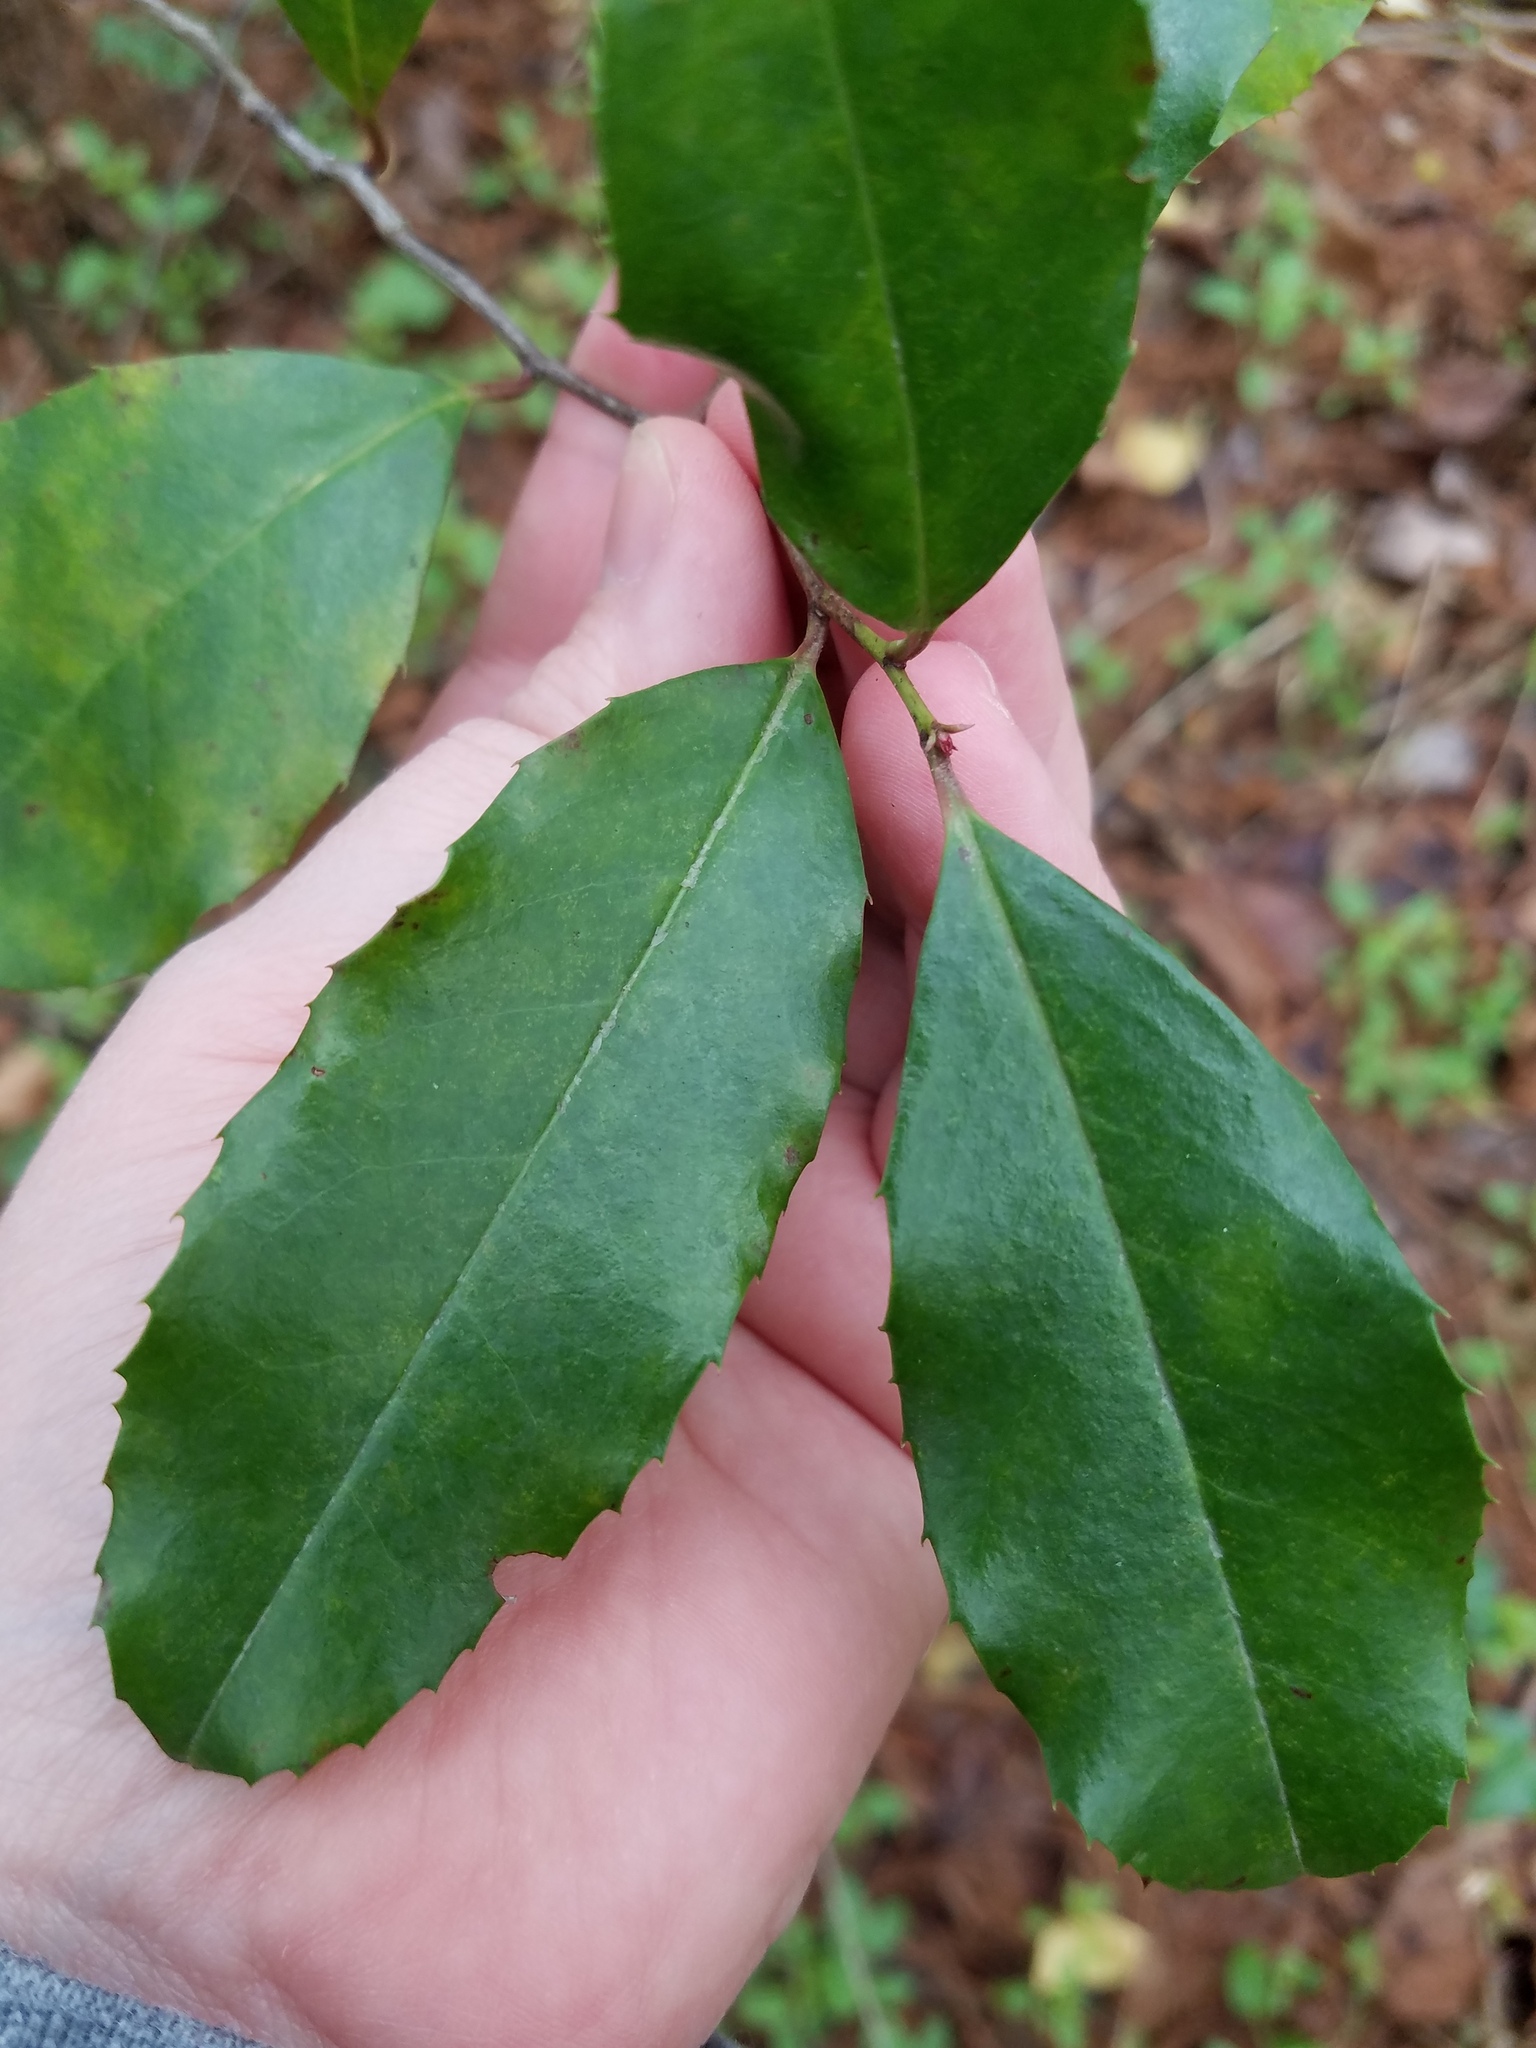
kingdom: Plantae
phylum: Tracheophyta
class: Magnoliopsida
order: Rosales
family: Rosaceae
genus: Prunus
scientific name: Prunus caroliniana
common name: Carolina laurel cherry
